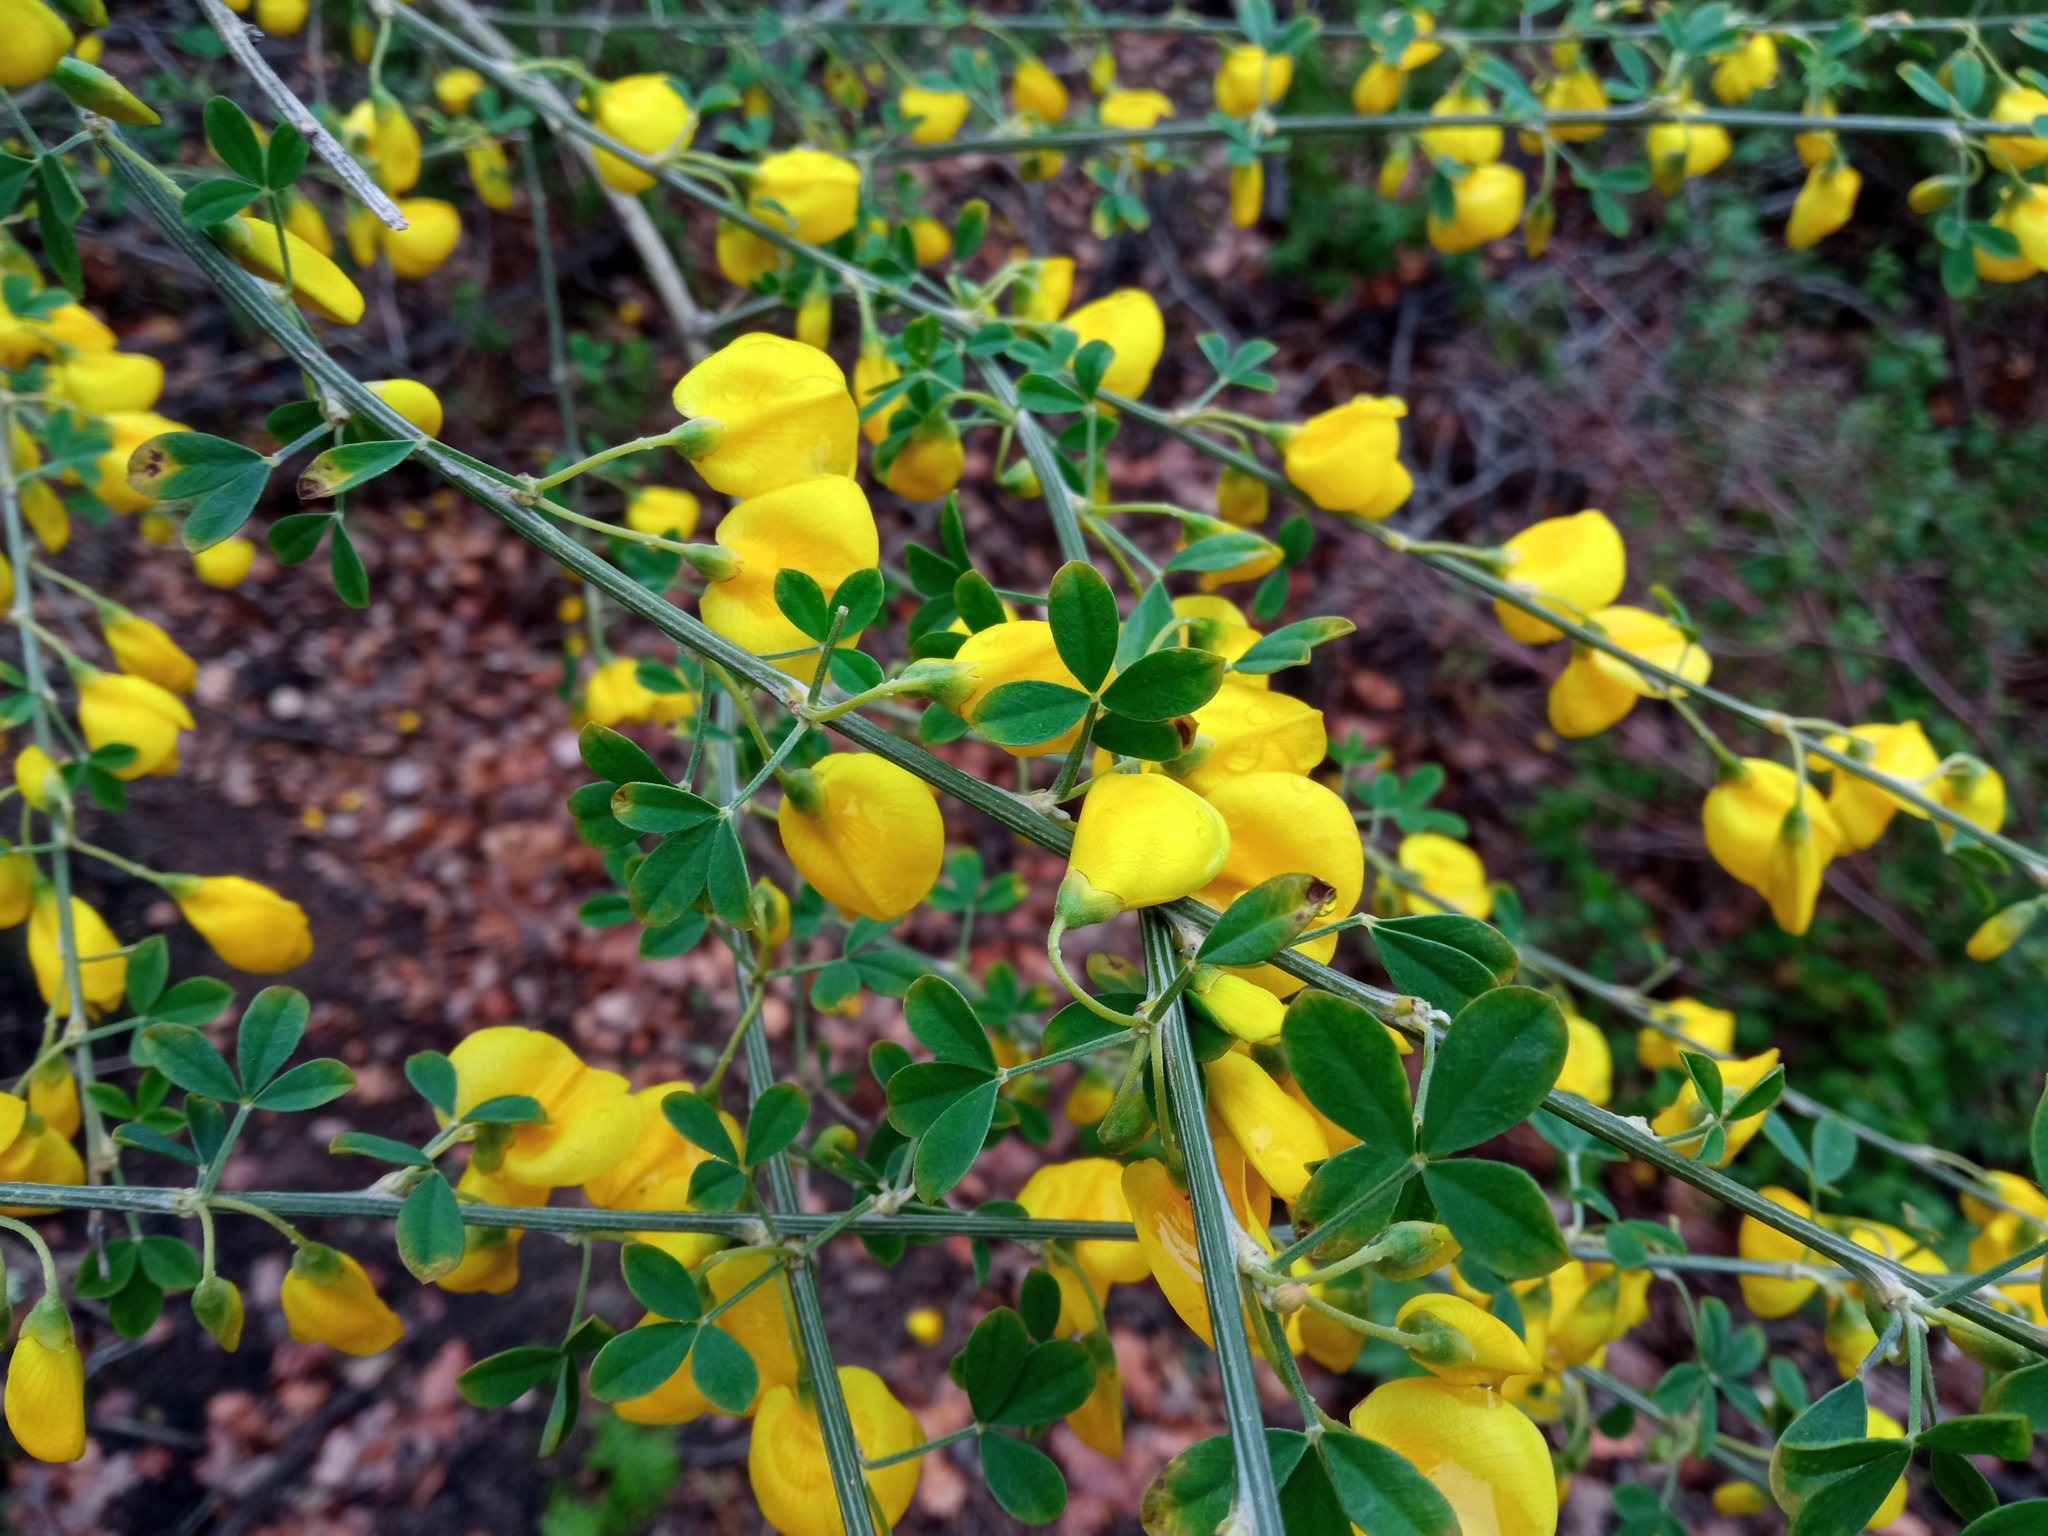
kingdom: Plantae
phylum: Tracheophyta
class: Magnoliopsida
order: Fabales
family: Fabaceae
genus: Cytisus
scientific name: Cytisus arboreus
